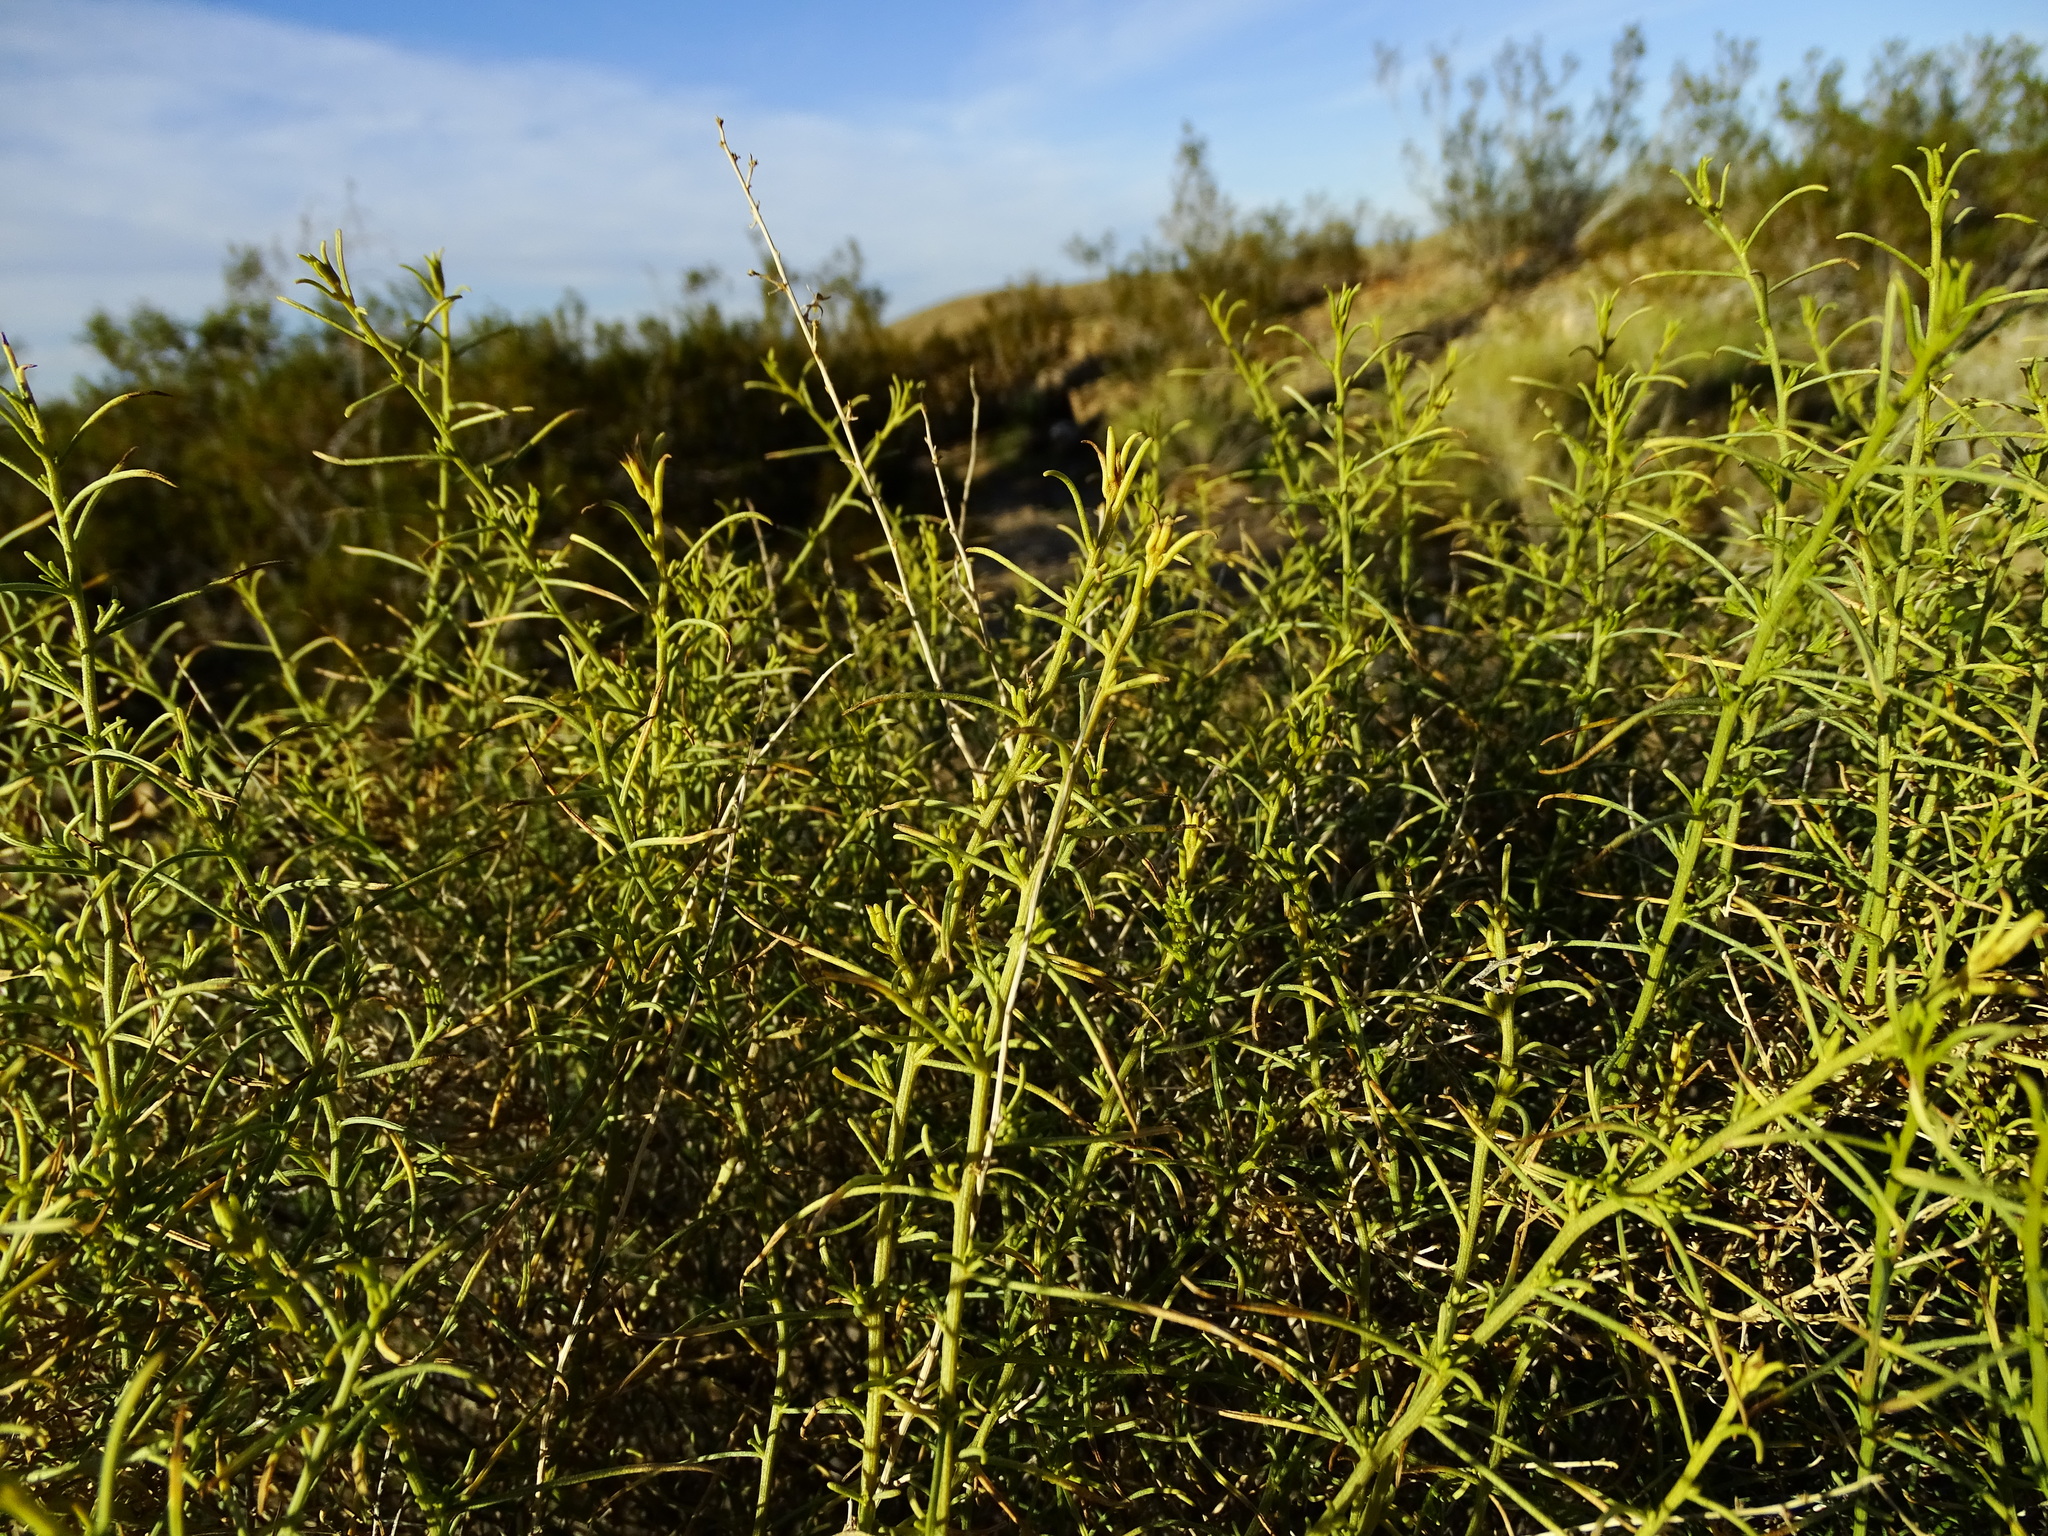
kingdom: Plantae
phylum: Tracheophyta
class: Magnoliopsida
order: Asterales
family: Asteraceae
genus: Ambrosia
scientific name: Ambrosia salsola
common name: Burrobrush
